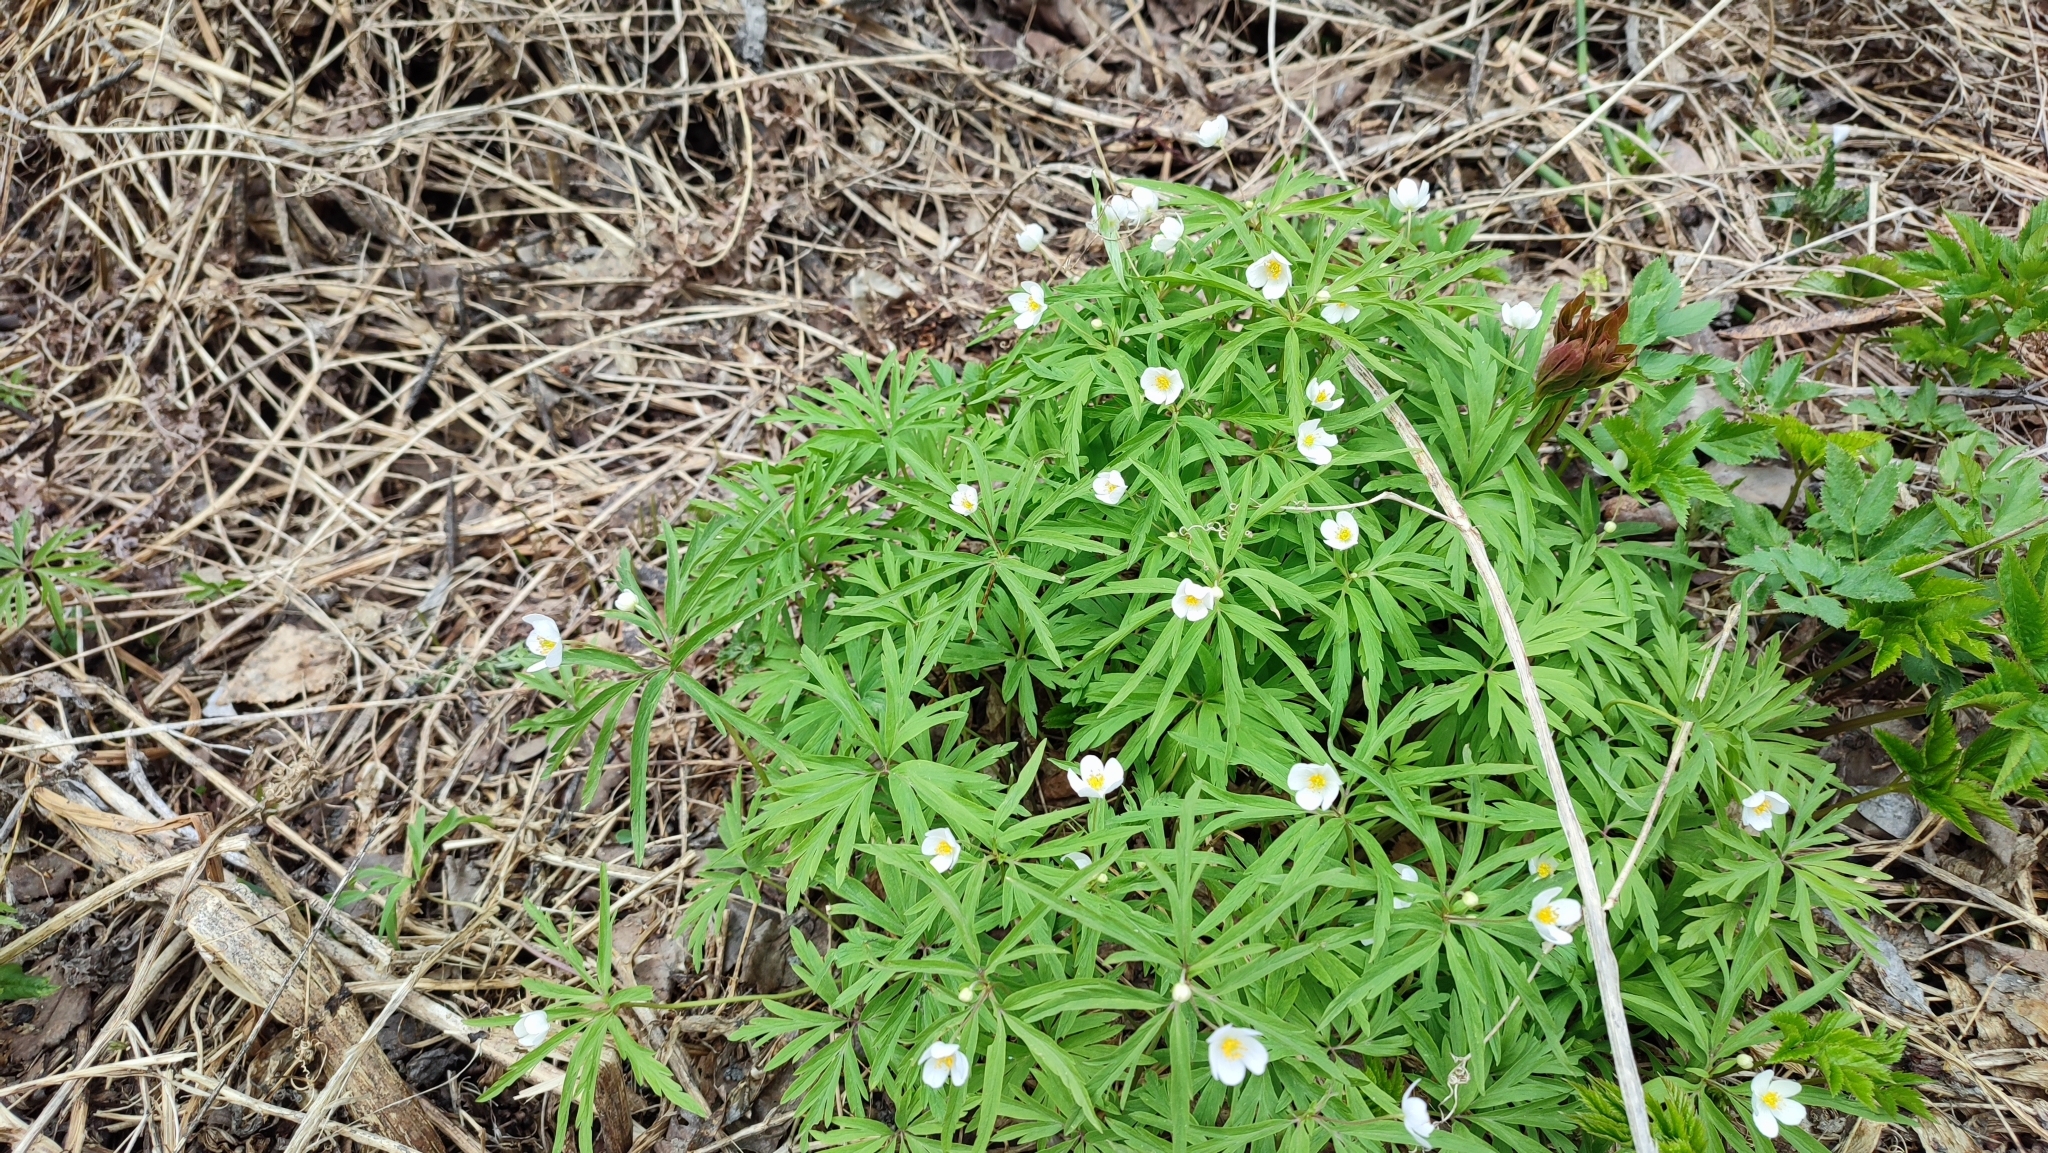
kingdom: Plantae
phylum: Tracheophyta
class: Magnoliopsida
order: Ranunculales
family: Ranunculaceae
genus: Anemone
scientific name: Anemone caerulea
